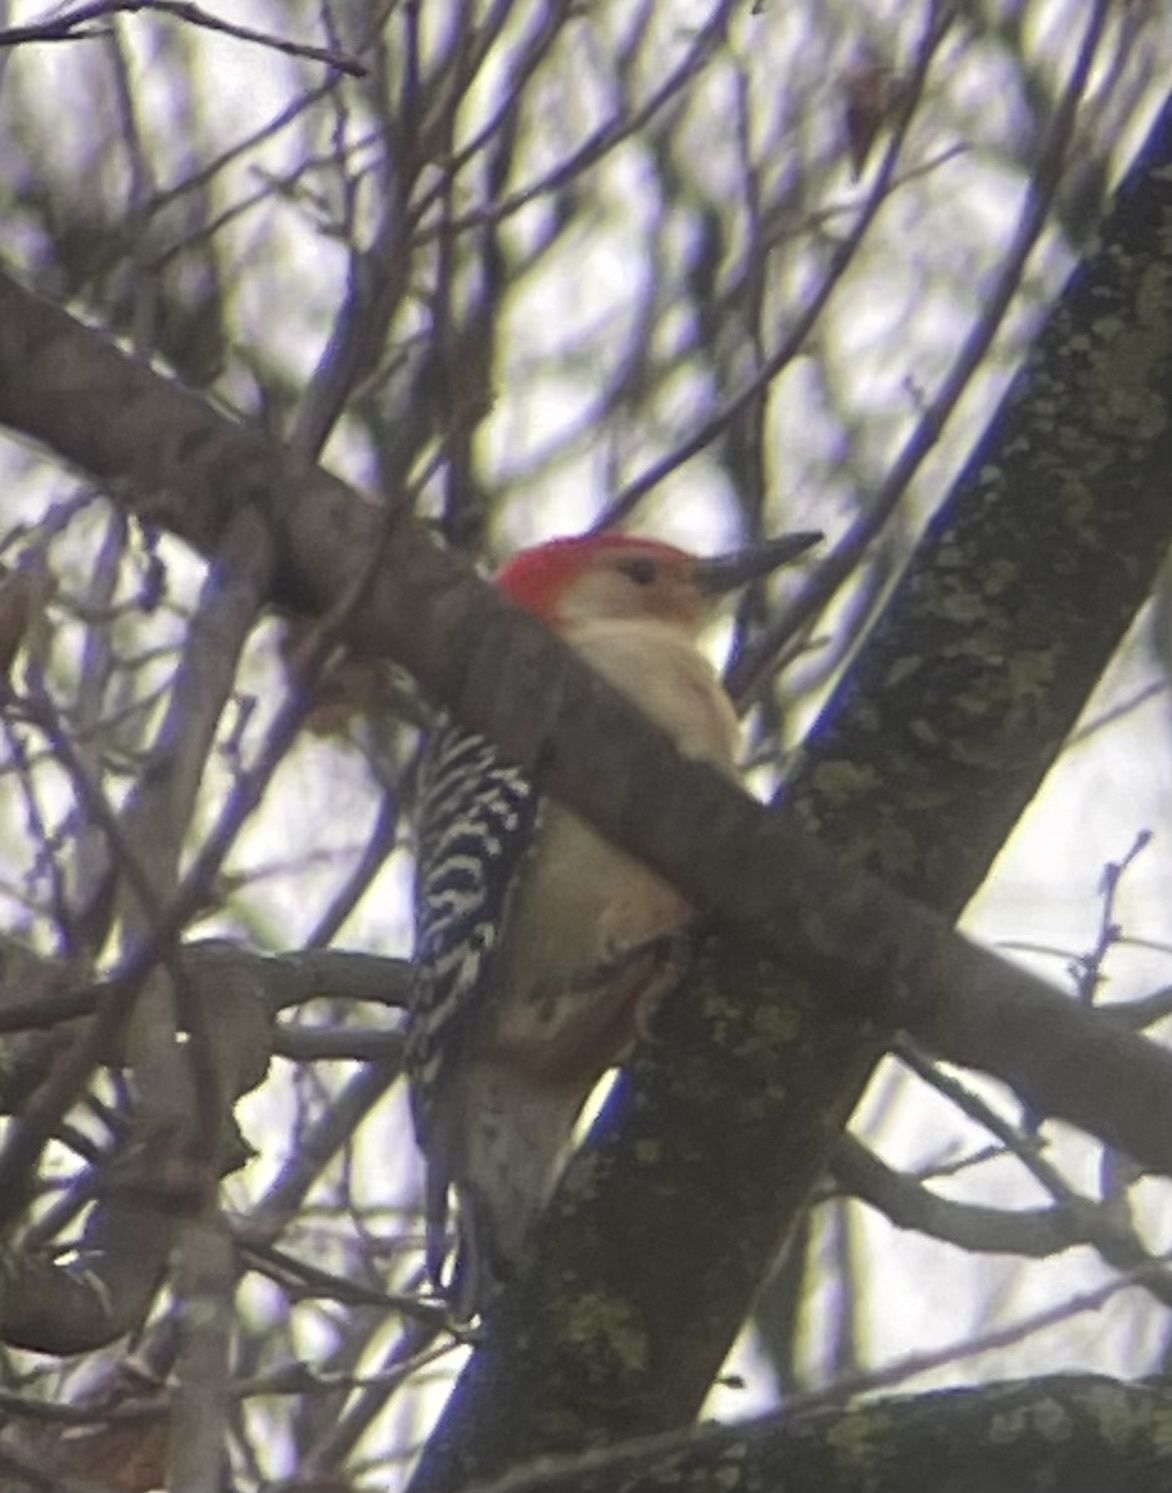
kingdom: Animalia
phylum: Chordata
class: Aves
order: Piciformes
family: Picidae
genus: Melanerpes
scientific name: Melanerpes carolinus
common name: Red-bellied woodpecker
